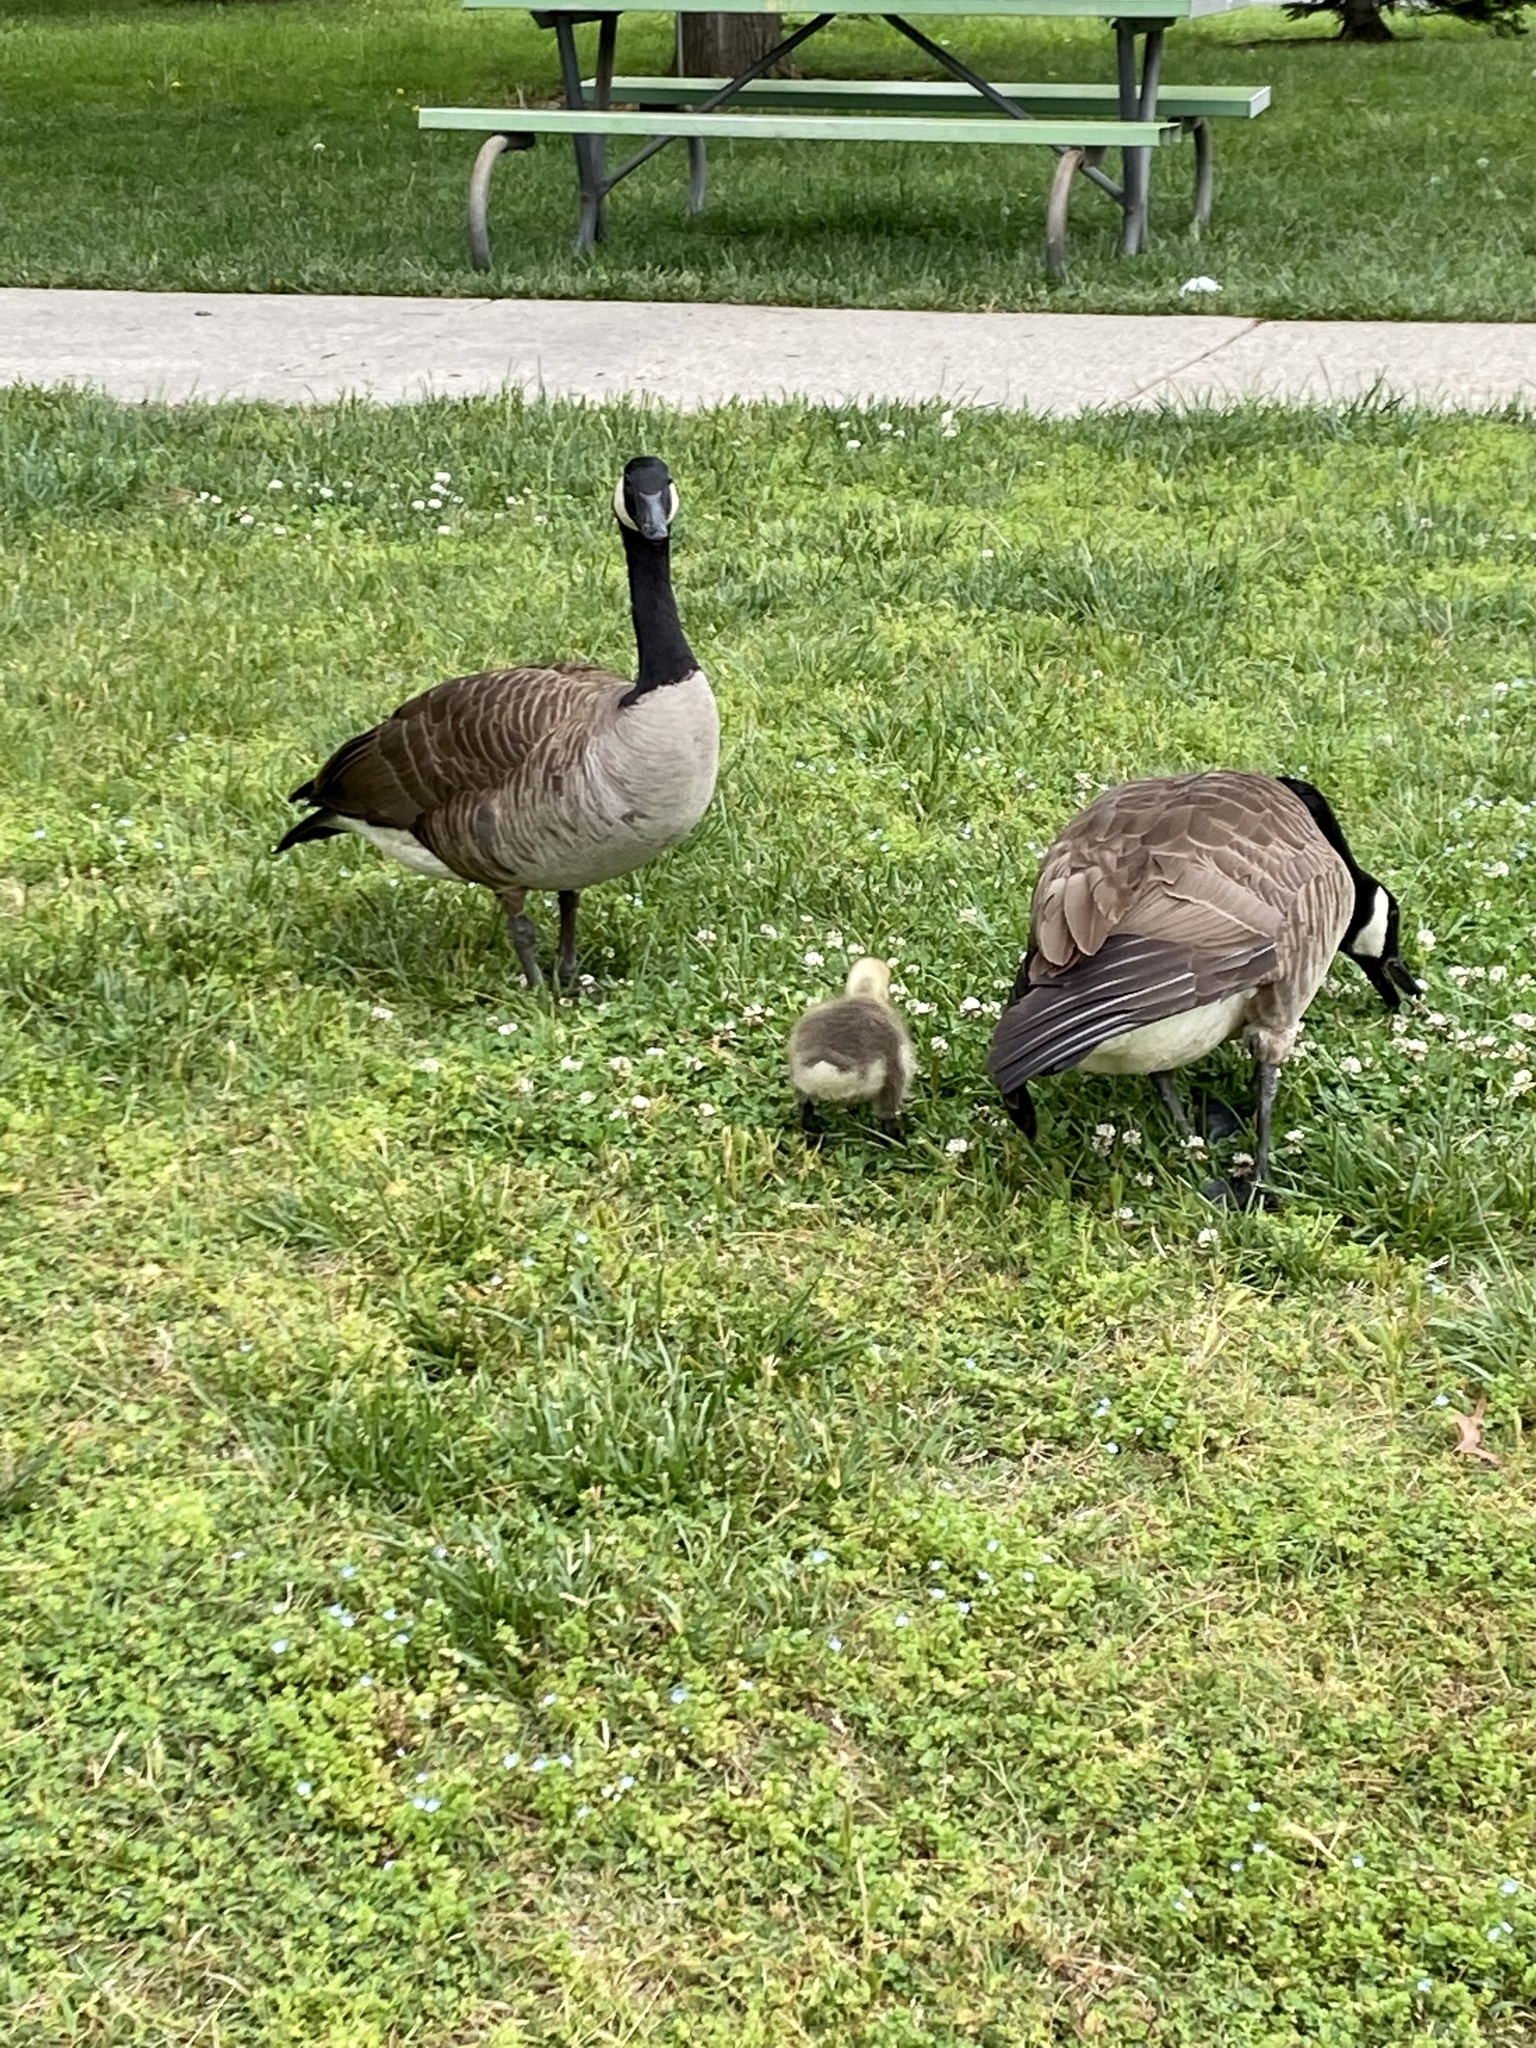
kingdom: Animalia
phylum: Chordata
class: Aves
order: Anseriformes
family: Anatidae
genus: Branta
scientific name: Branta canadensis
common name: Canada goose
